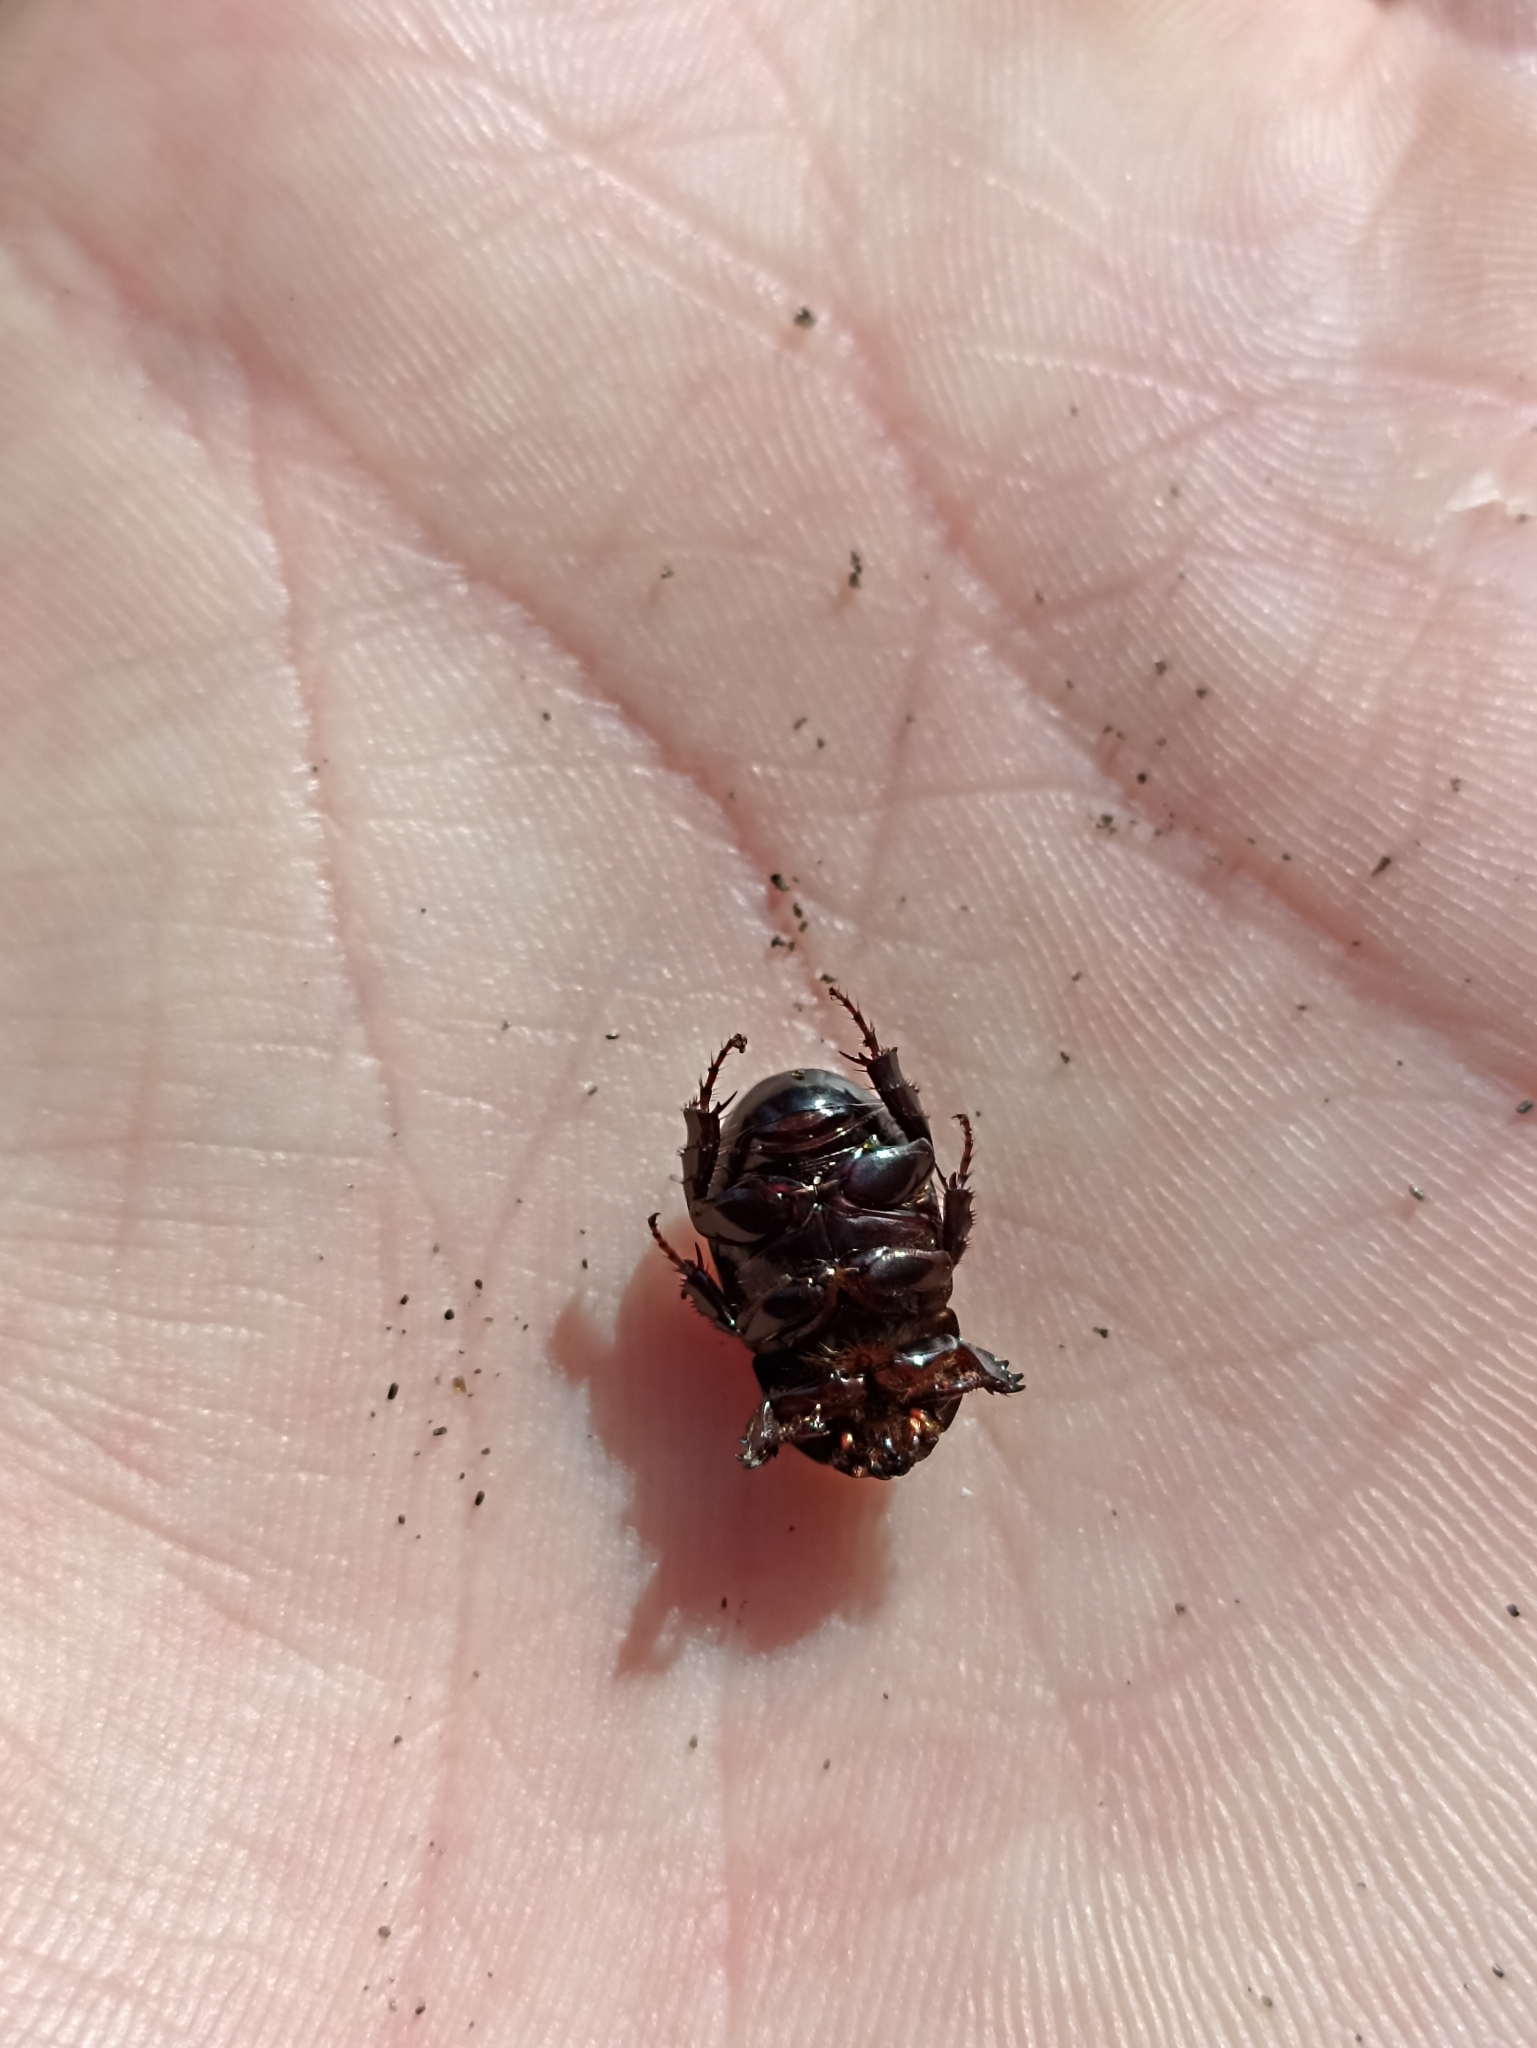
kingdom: Animalia
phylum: Arthropoda
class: Insecta
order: Coleoptera
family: Scarabaeidae
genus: Heteronychus
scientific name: Heteronychus arator
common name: African black beetle
